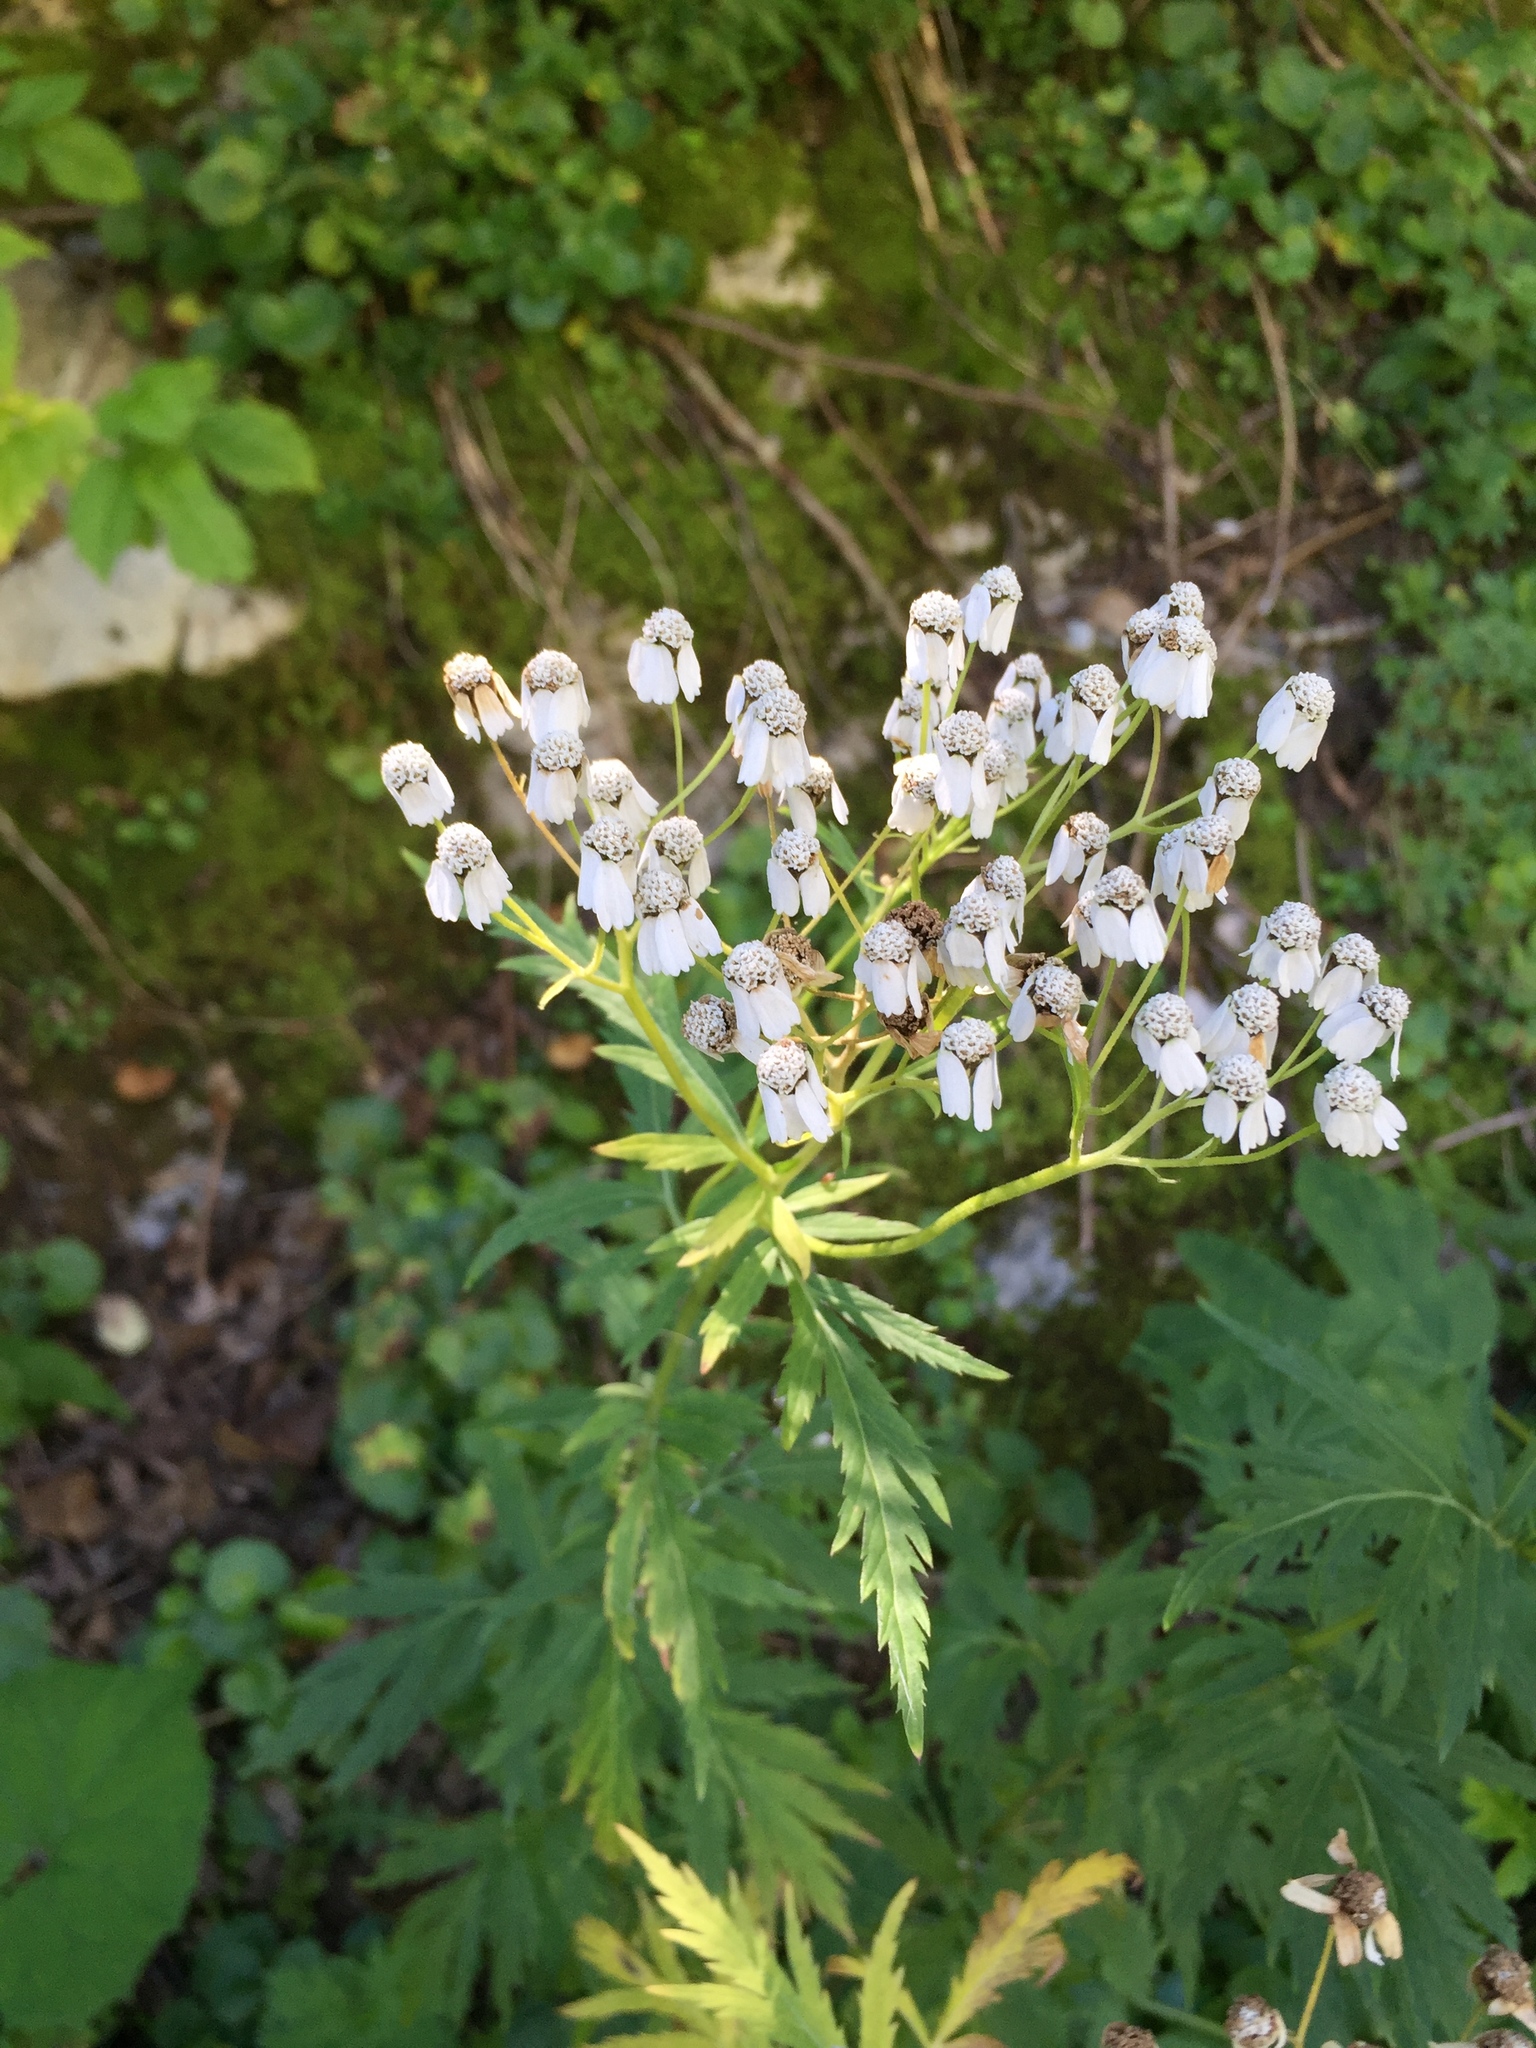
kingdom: Plantae
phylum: Tracheophyta
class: Magnoliopsida
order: Asterales
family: Asteraceae
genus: Achillea
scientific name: Achillea macrophylla
